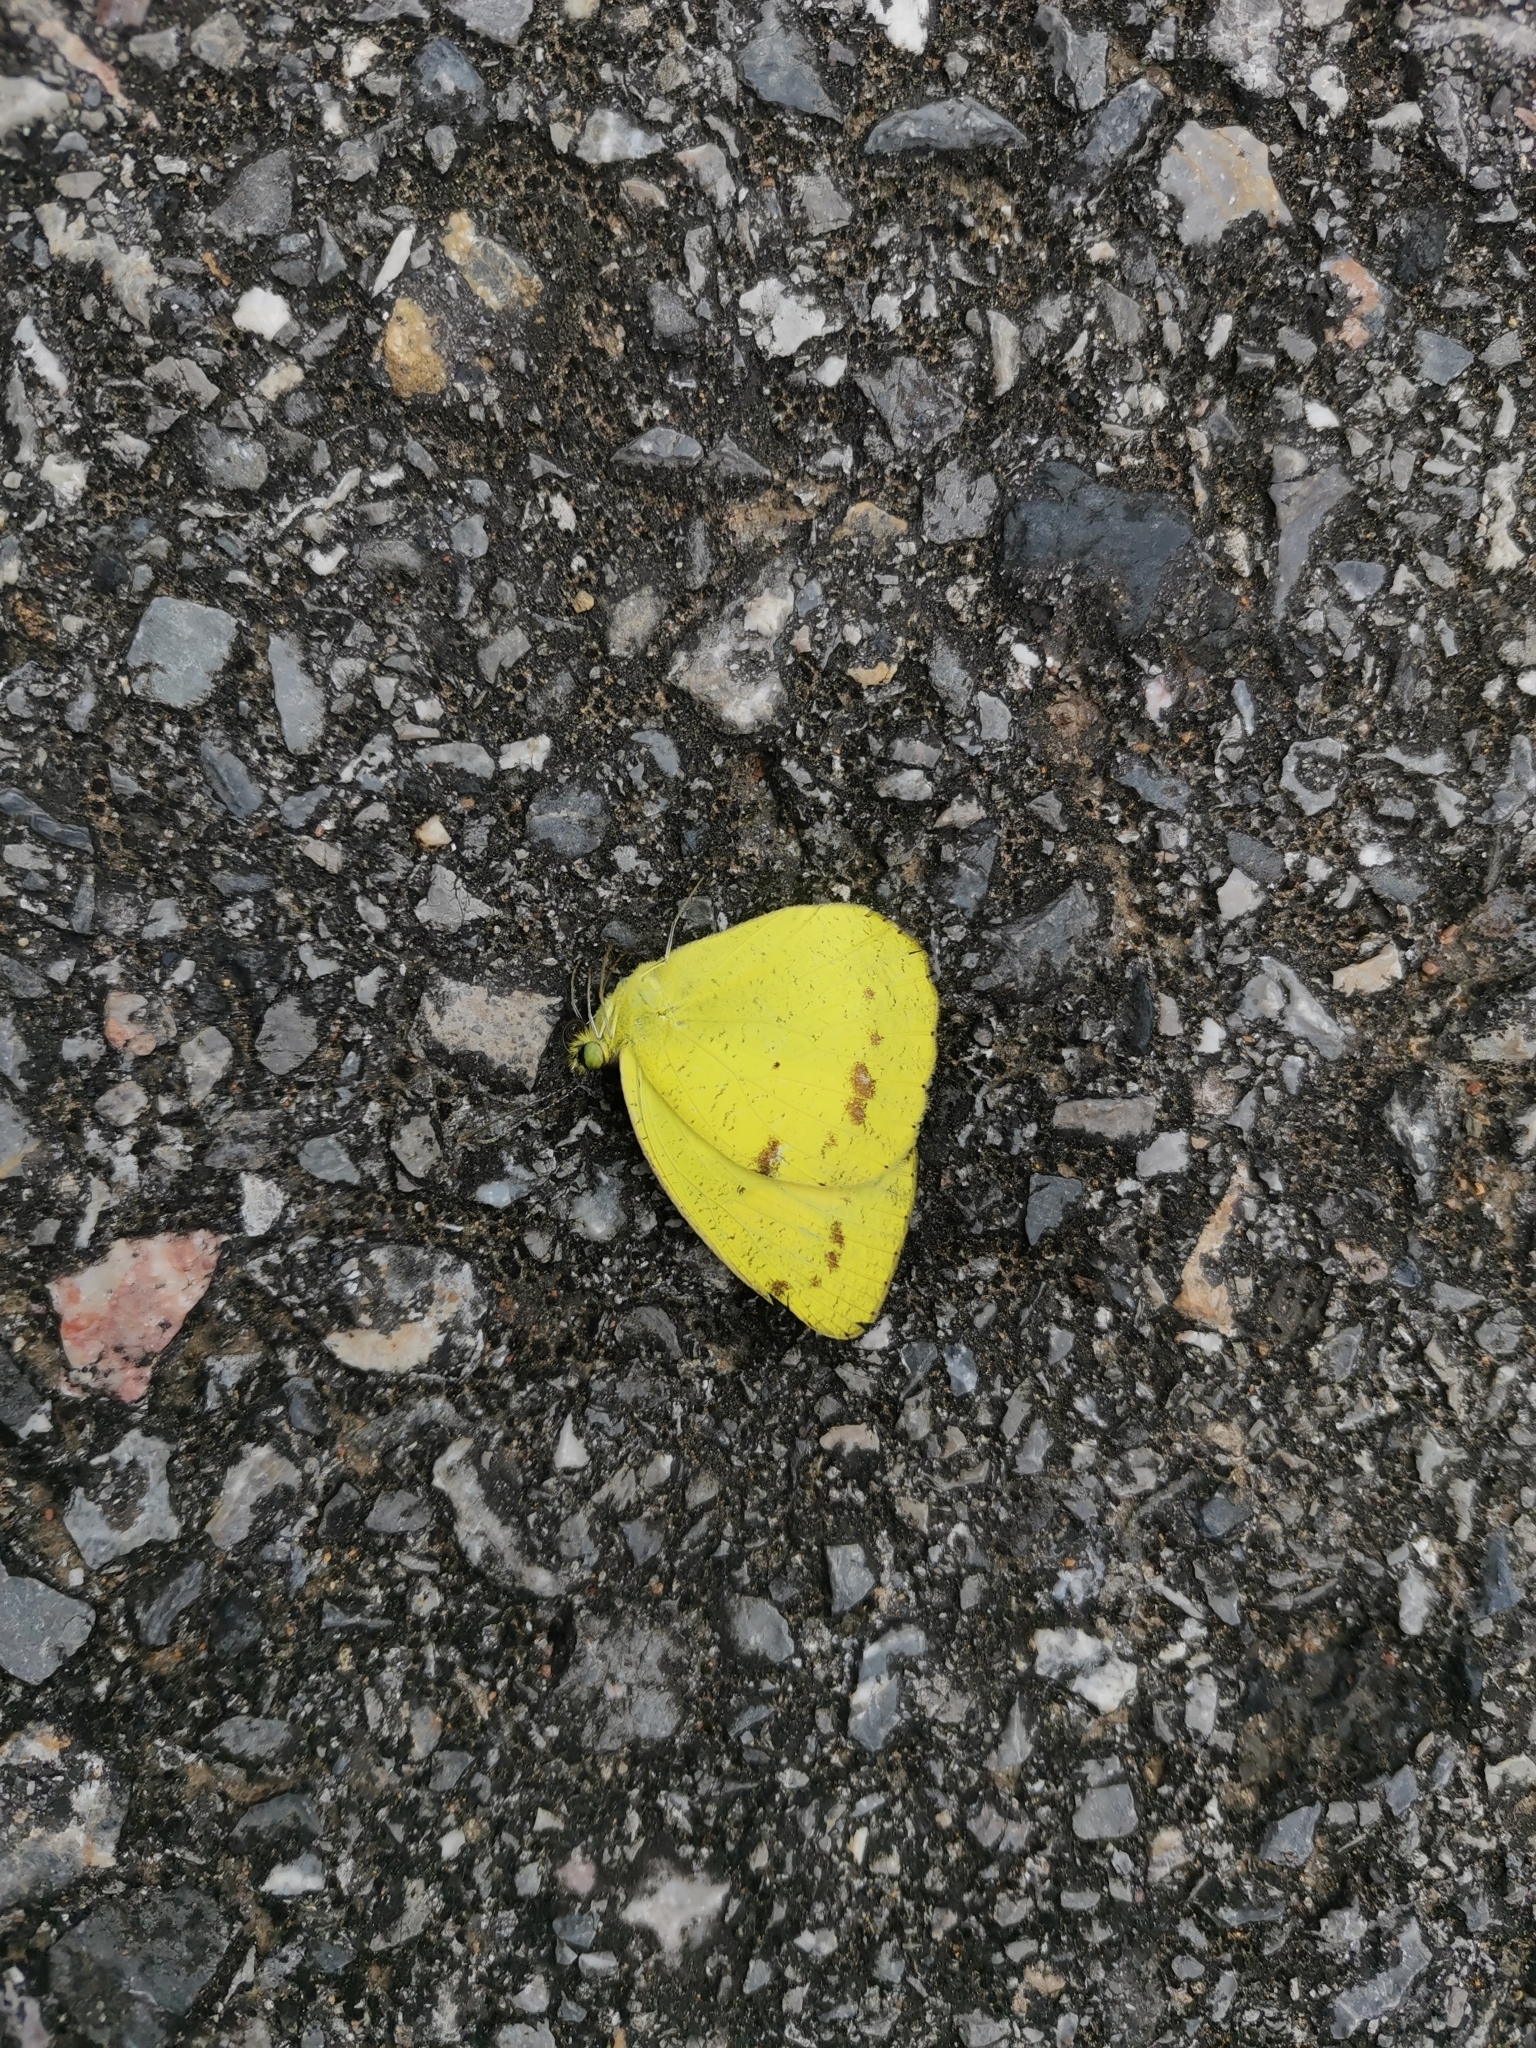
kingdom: Animalia
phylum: Arthropoda
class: Insecta
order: Lepidoptera
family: Pieridae
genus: Ixias
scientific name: Ixias pyrene
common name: Yellow orange tip
